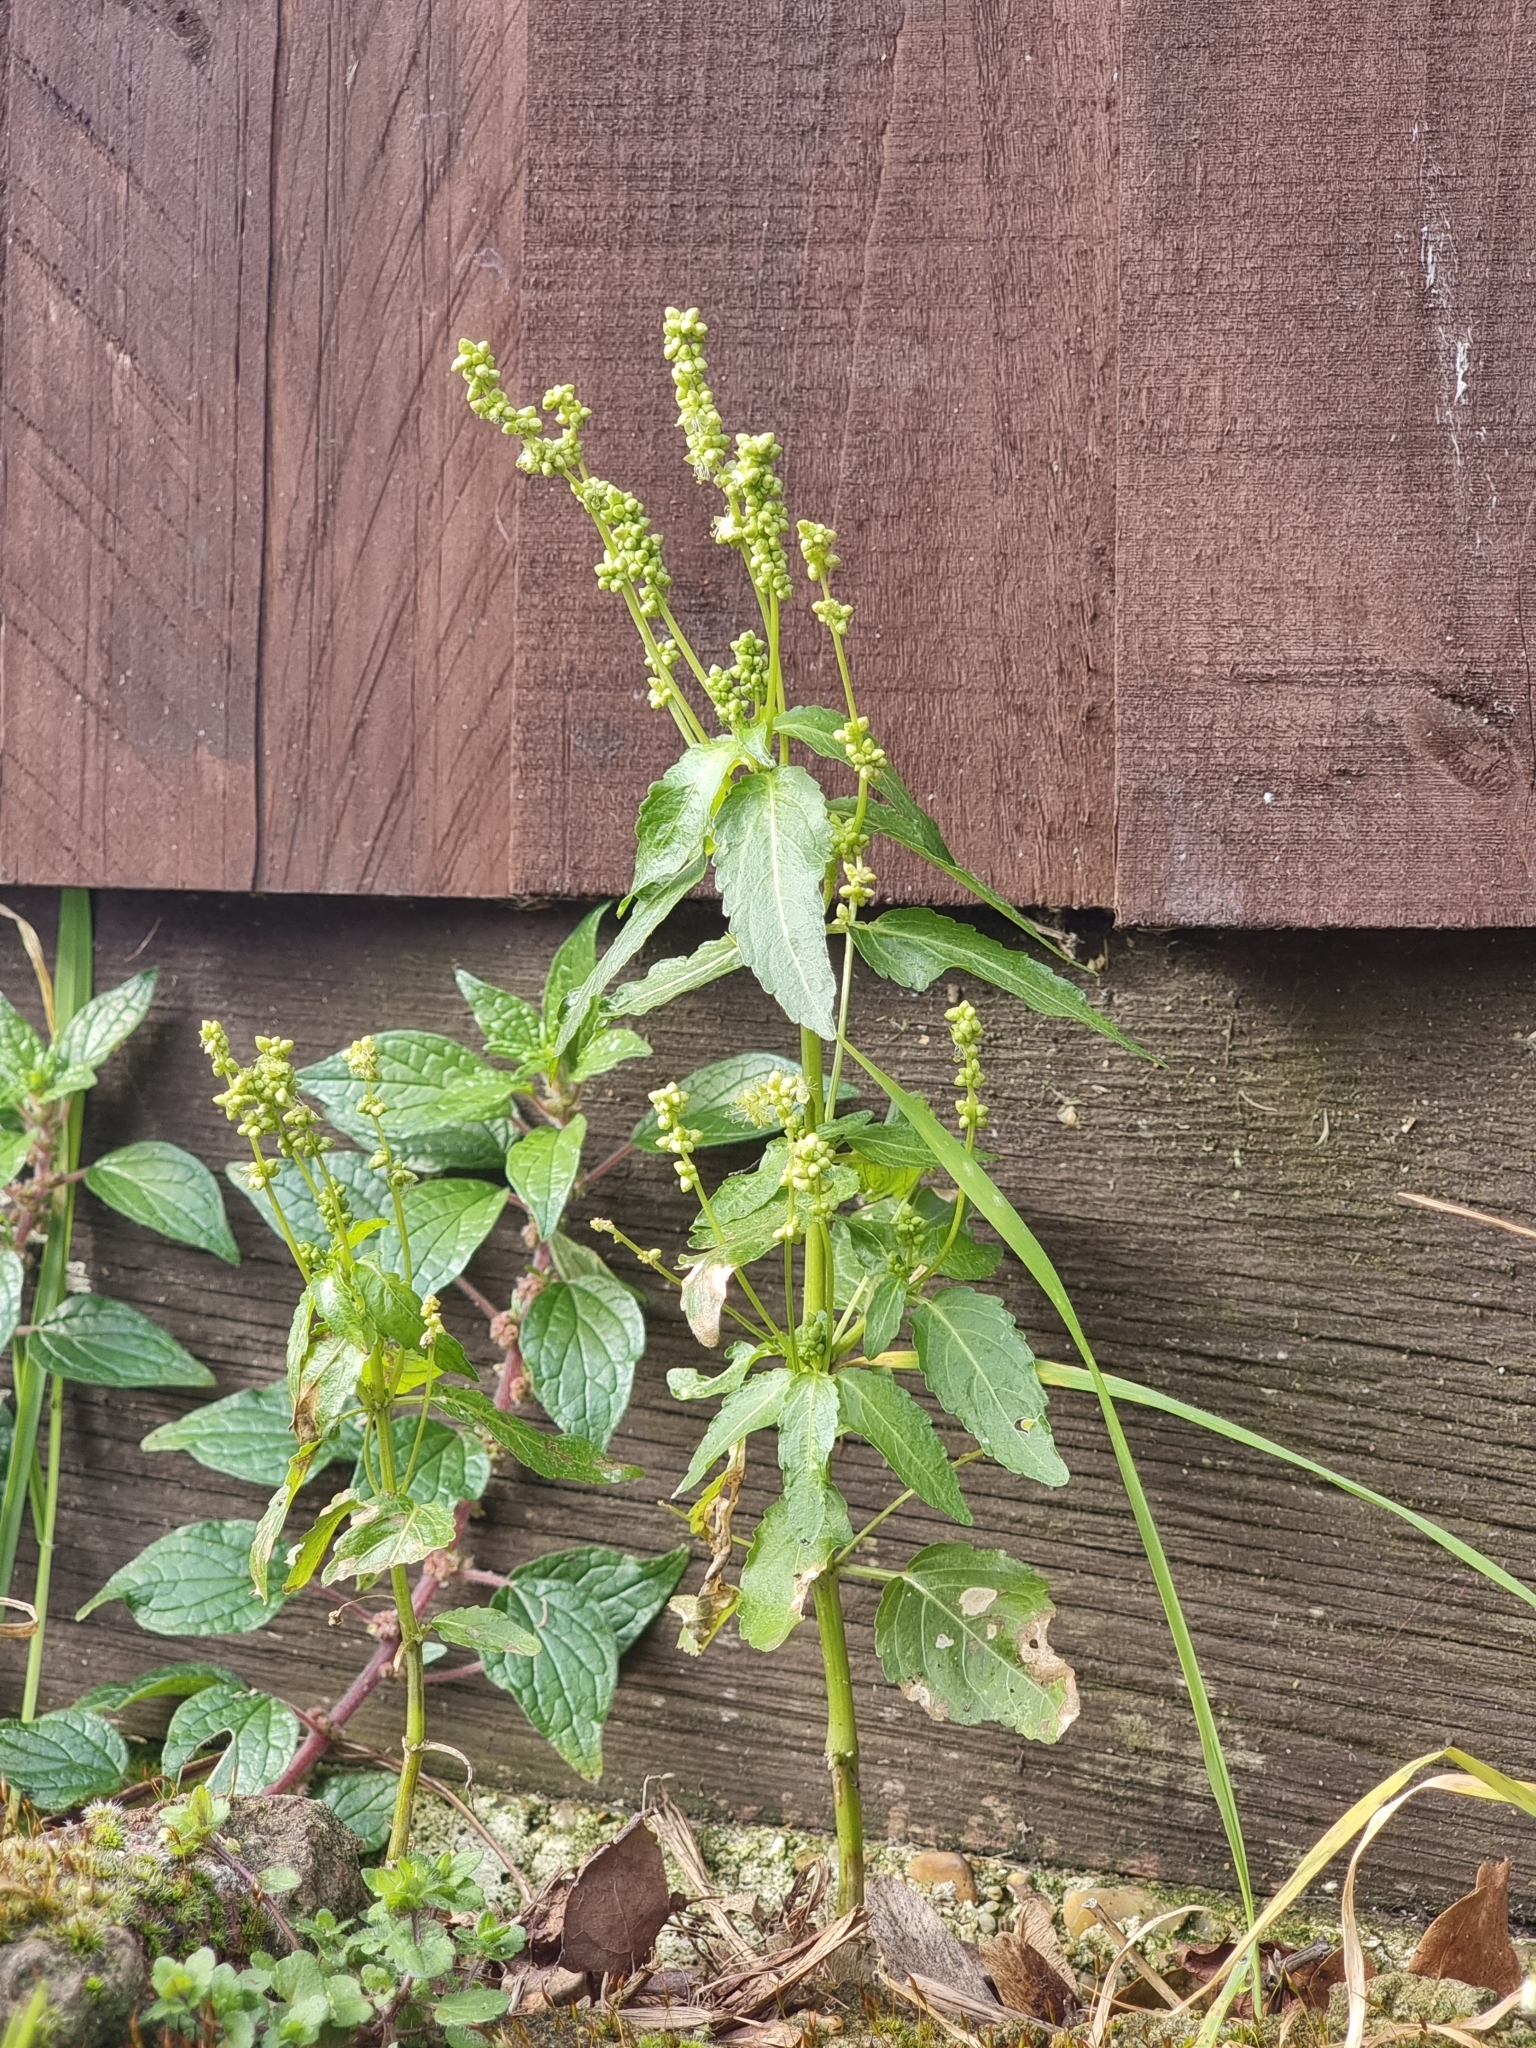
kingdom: Plantae
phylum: Tracheophyta
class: Magnoliopsida
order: Malpighiales
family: Euphorbiaceae
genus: Mercurialis
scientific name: Mercurialis annua
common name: Annual mercury
